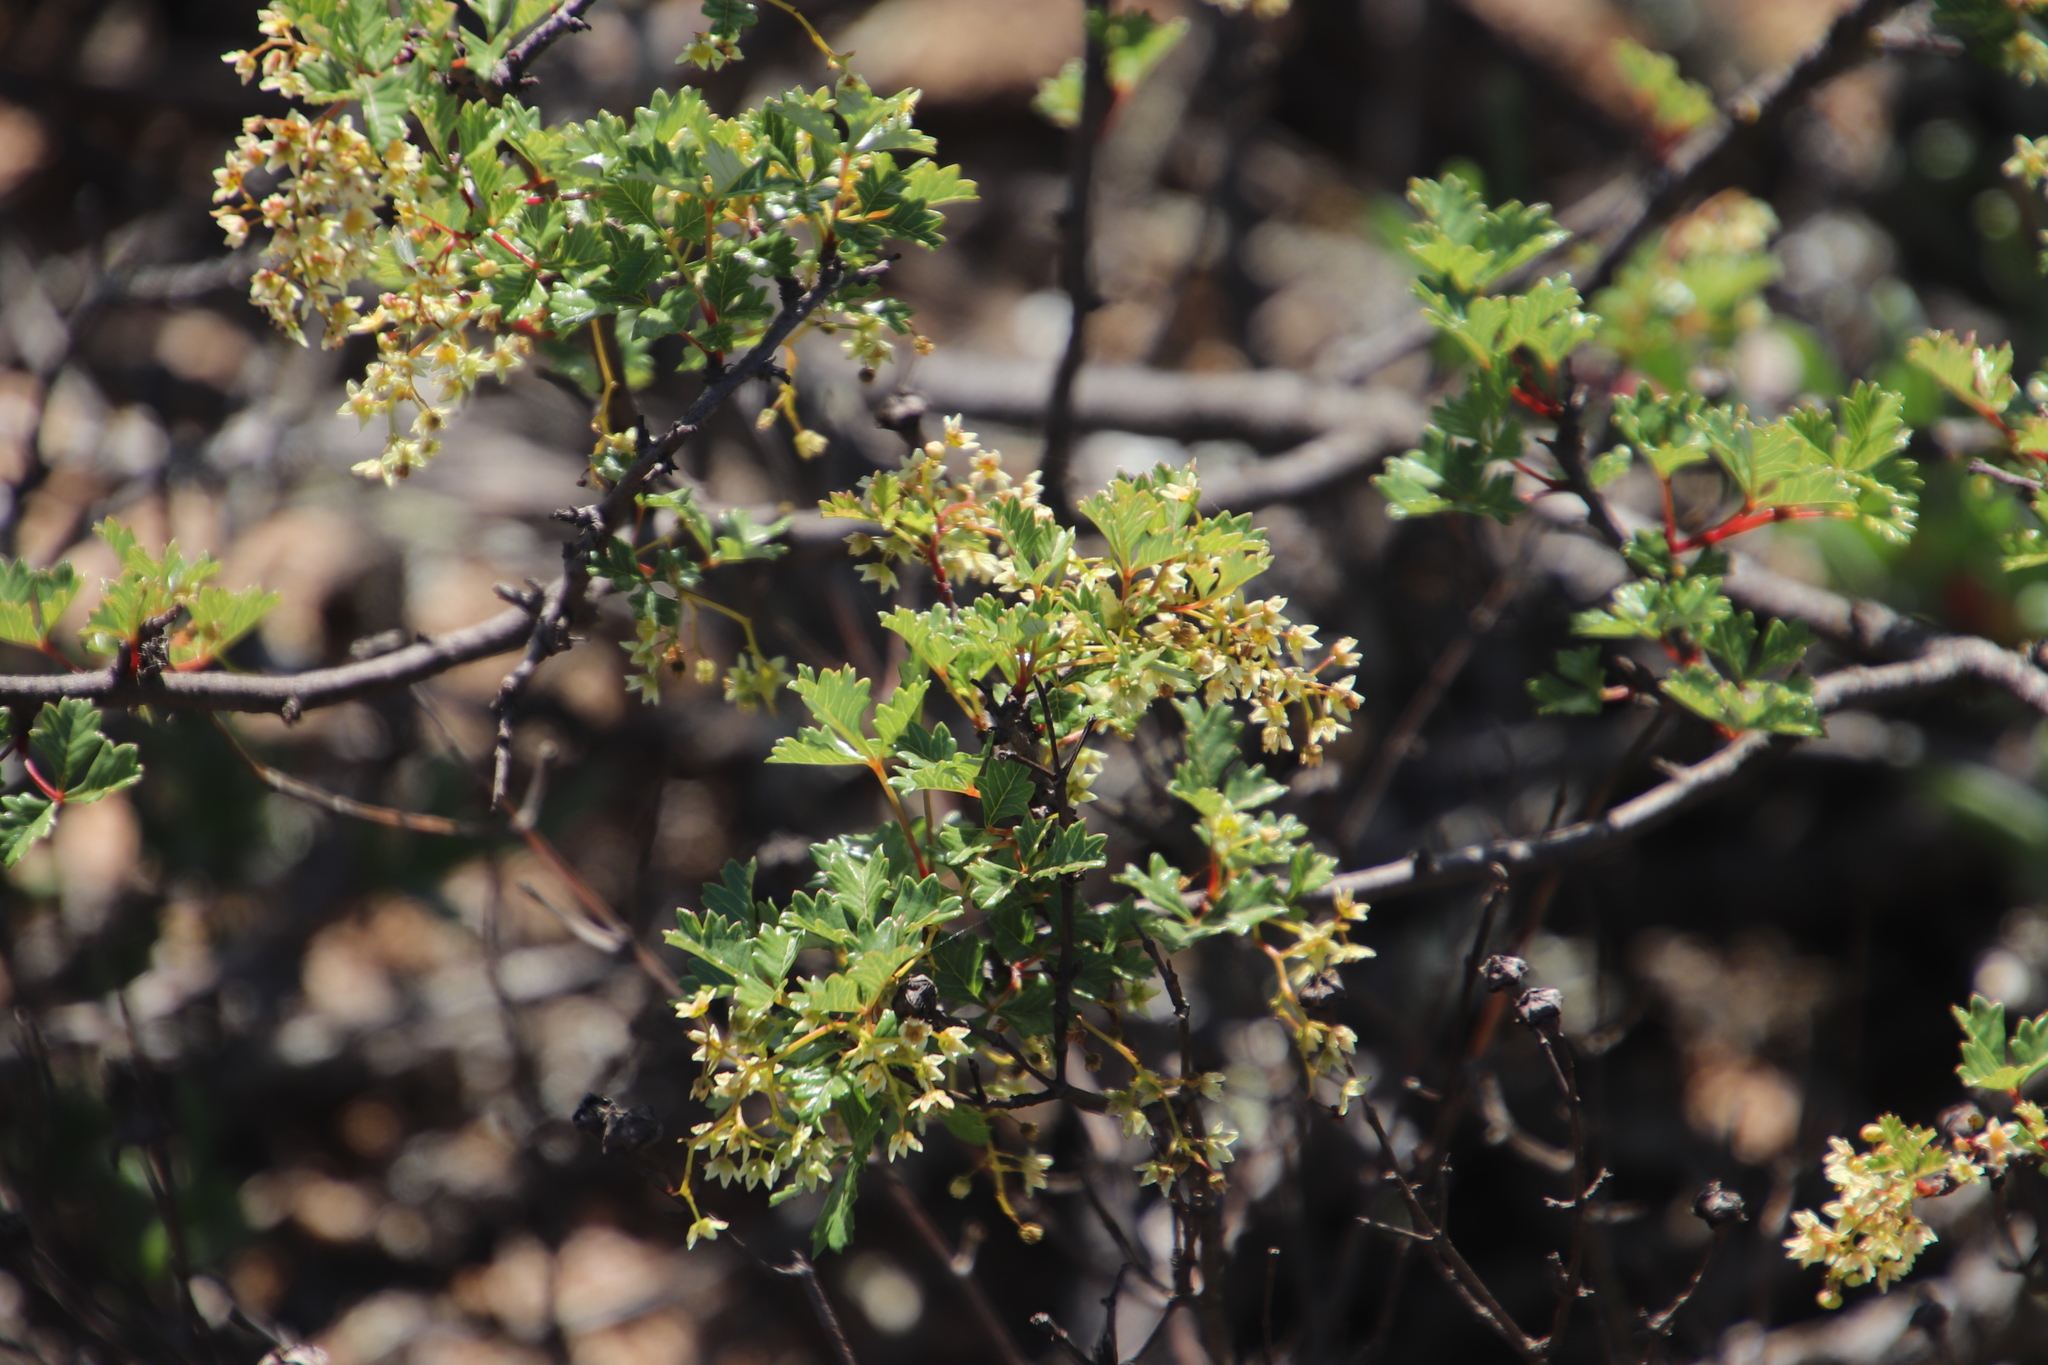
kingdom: Plantae
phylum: Tracheophyta
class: Magnoliopsida
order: Sapindales
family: Anacardiaceae
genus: Searsia
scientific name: Searsia dissecta
